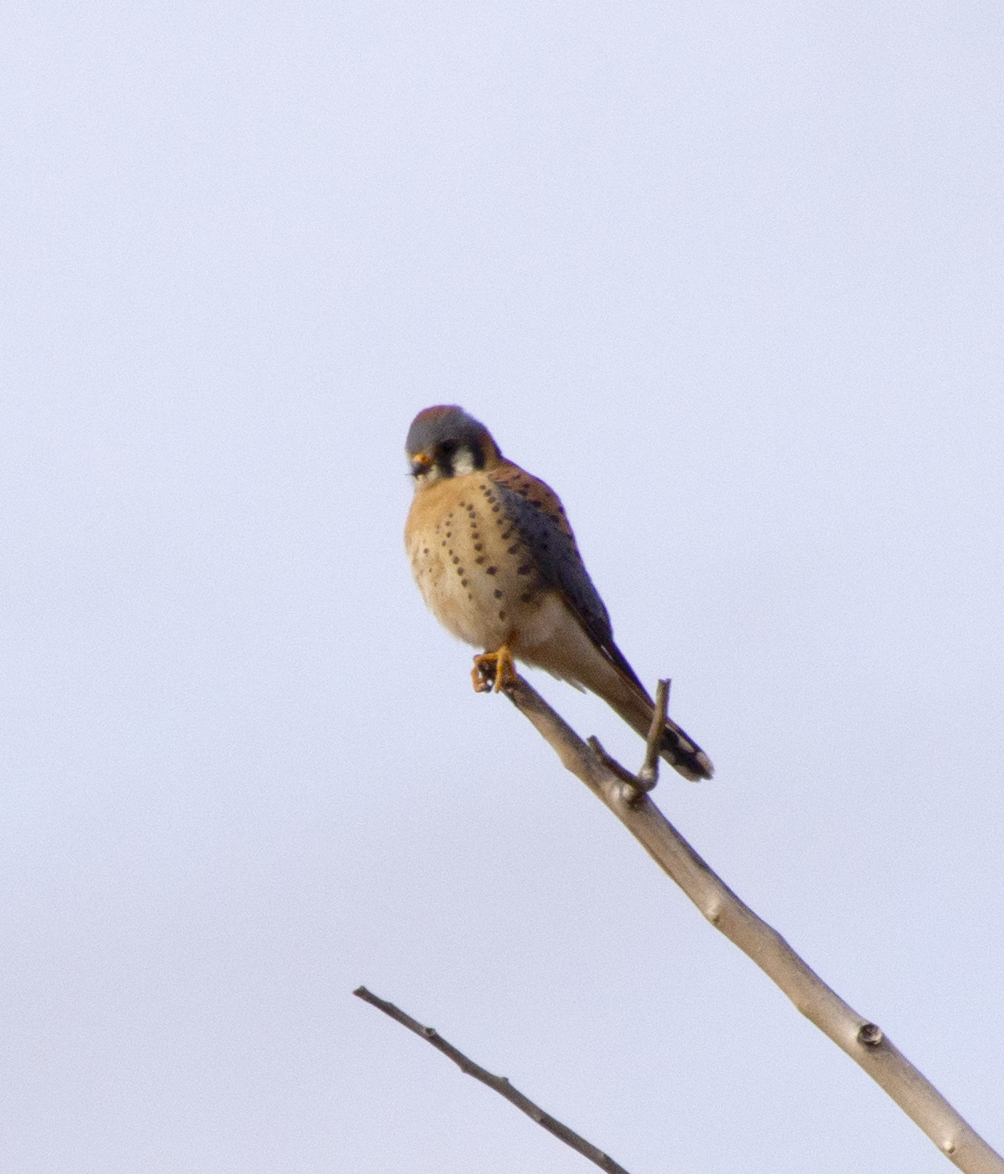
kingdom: Animalia
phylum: Chordata
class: Aves
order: Falconiformes
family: Falconidae
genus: Falco
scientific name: Falco sparverius
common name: American kestrel
